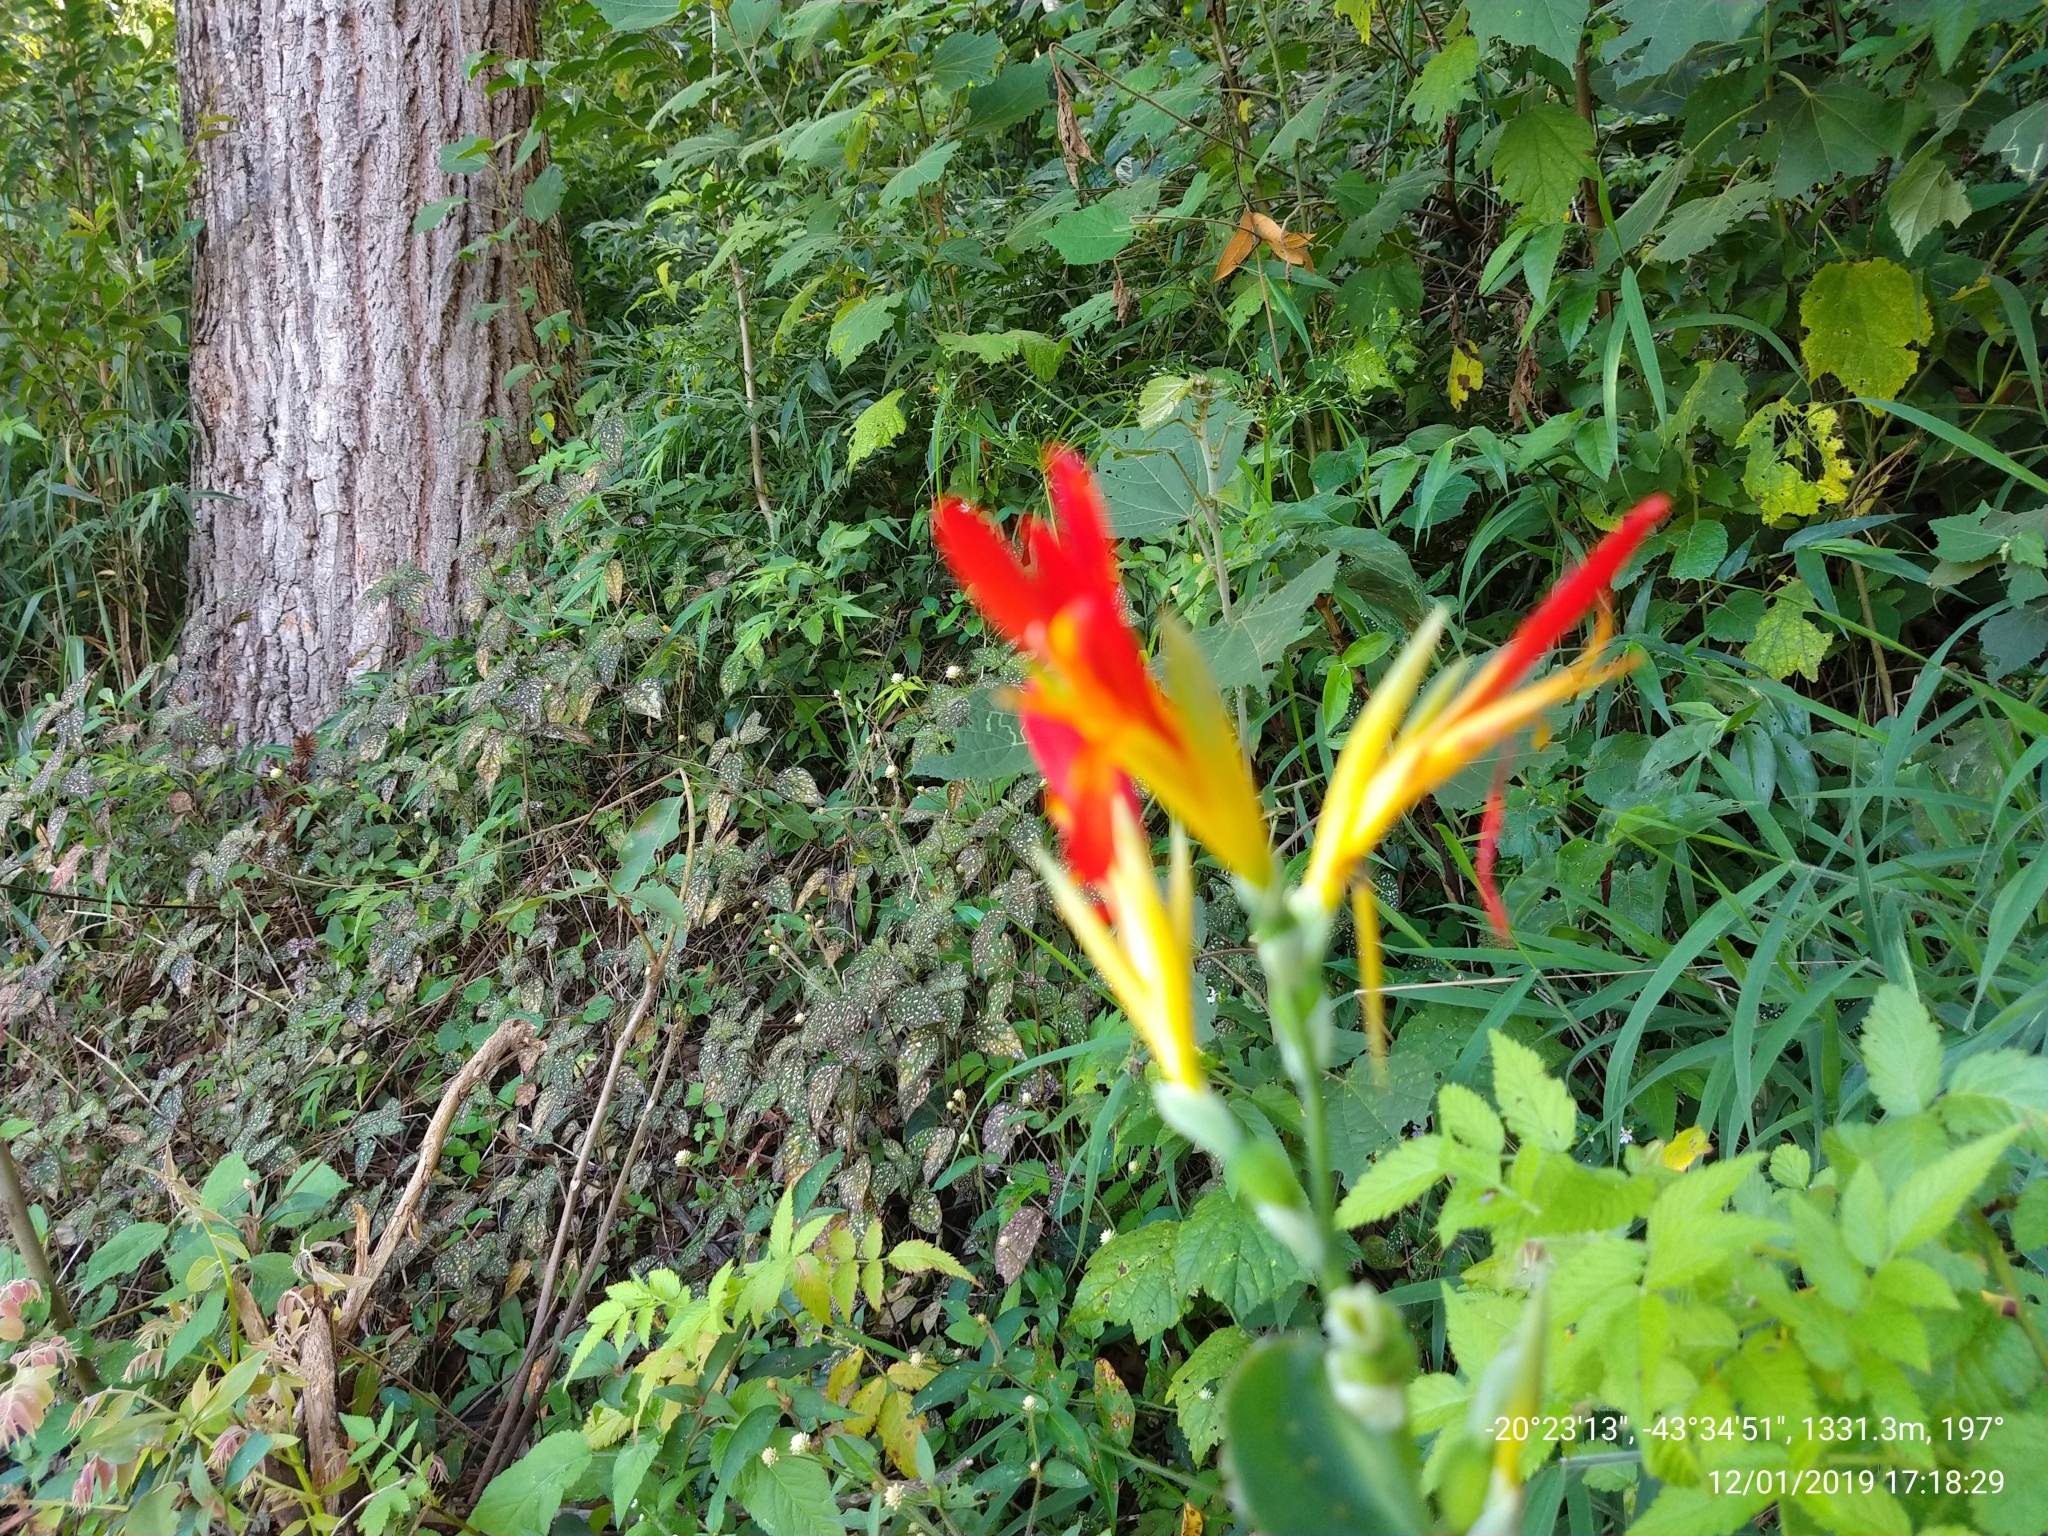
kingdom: Plantae
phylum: Tracheophyta
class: Liliopsida
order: Zingiberales
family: Cannaceae
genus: Canna
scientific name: Canna indica
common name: Indian shot
